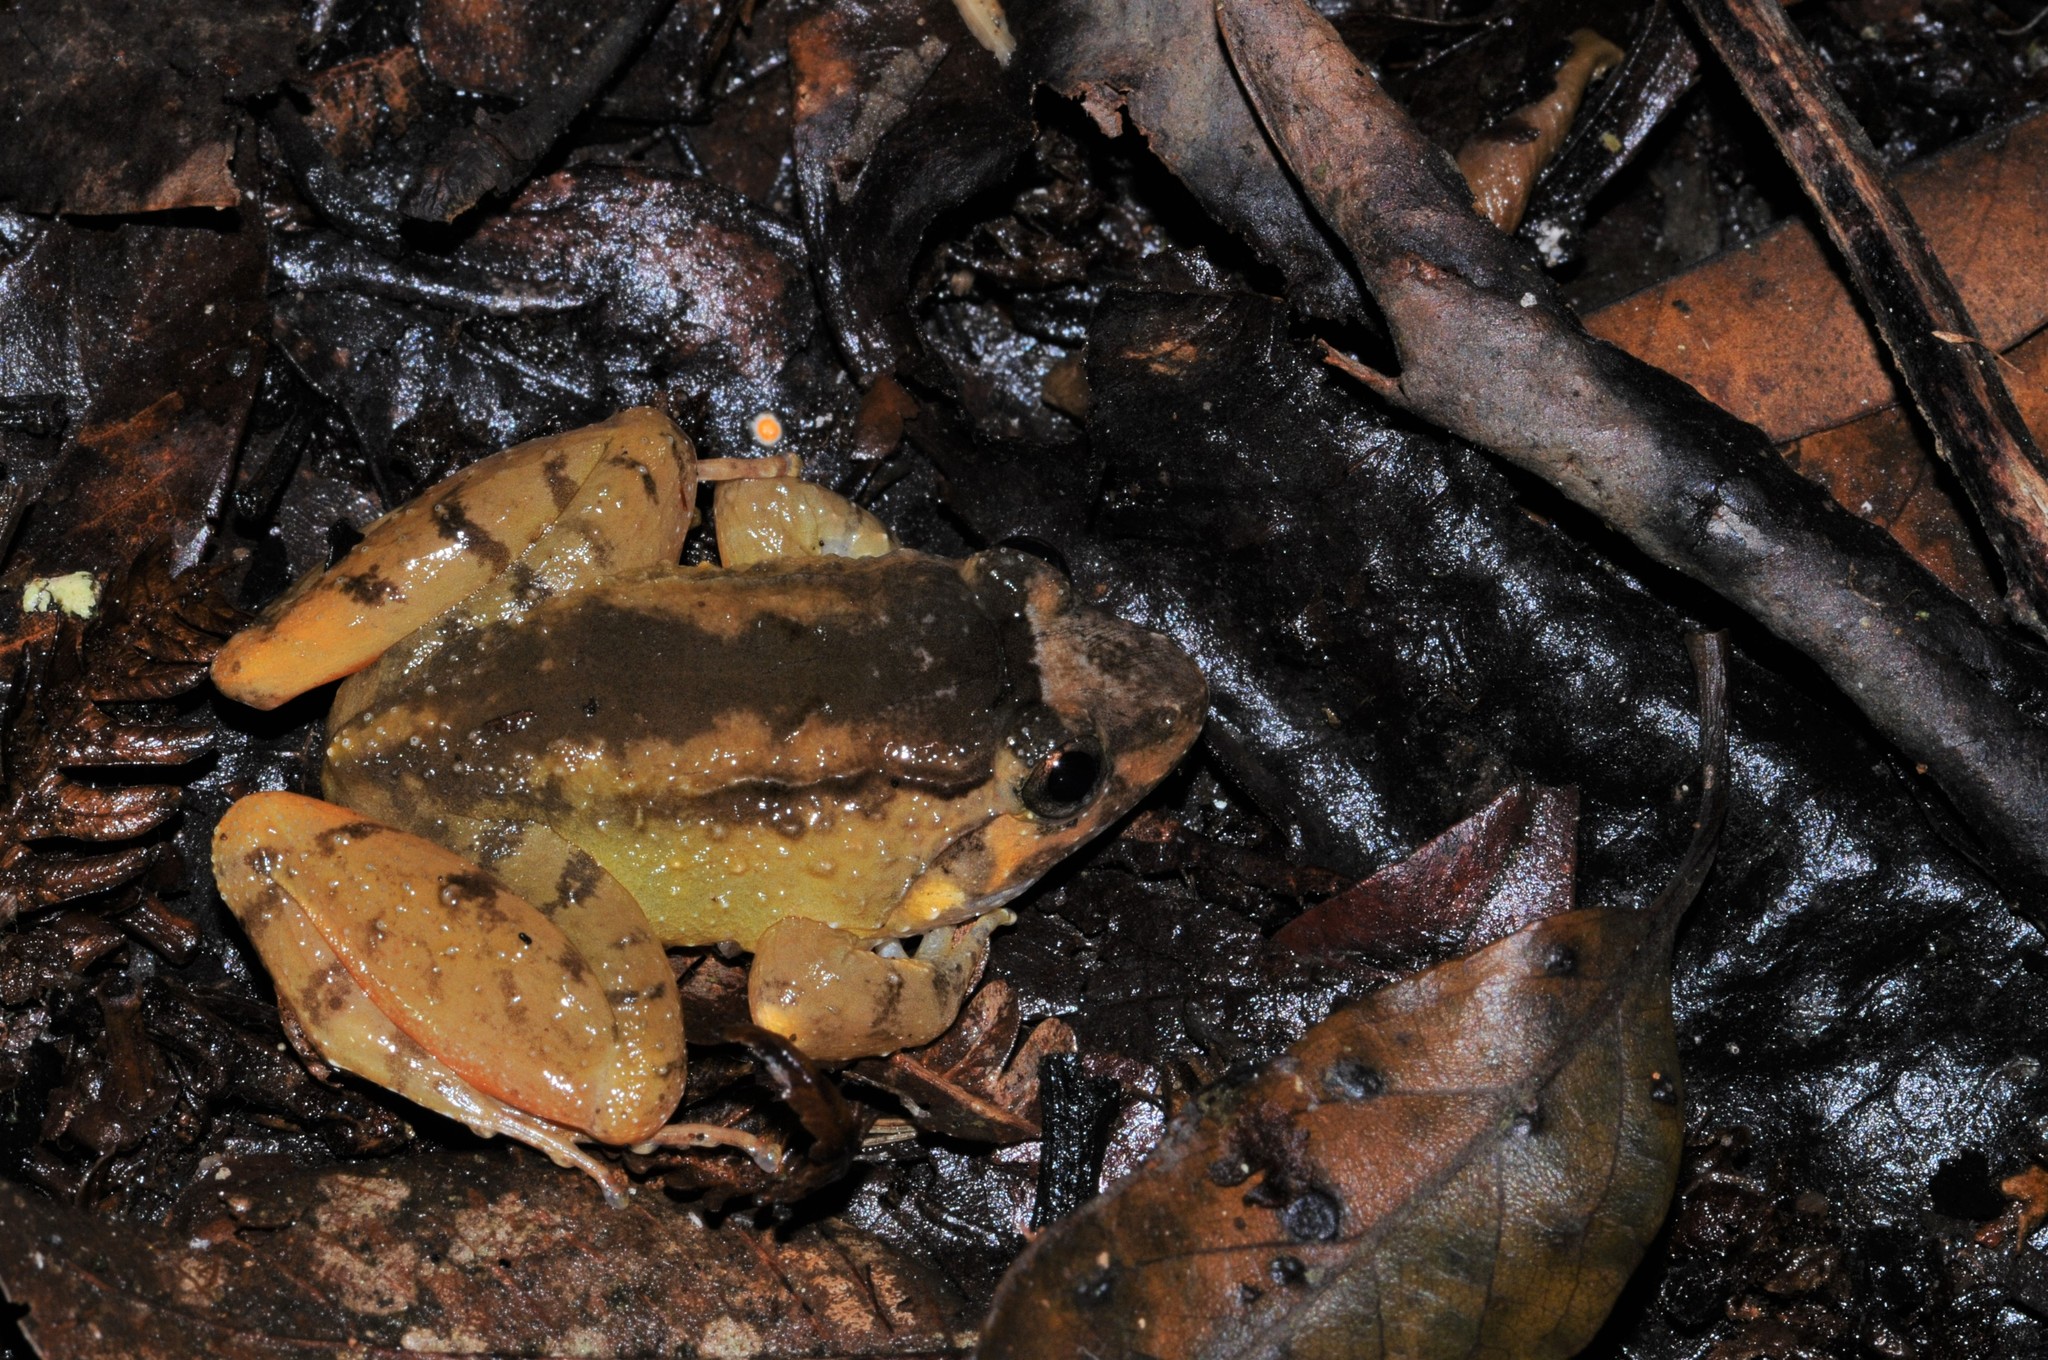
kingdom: Animalia
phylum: Chordata
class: Amphibia
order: Anura
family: Dicroglossidae
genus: Limnonectes
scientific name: Limnonectes nitidus
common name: Tanahrata wartfrog
